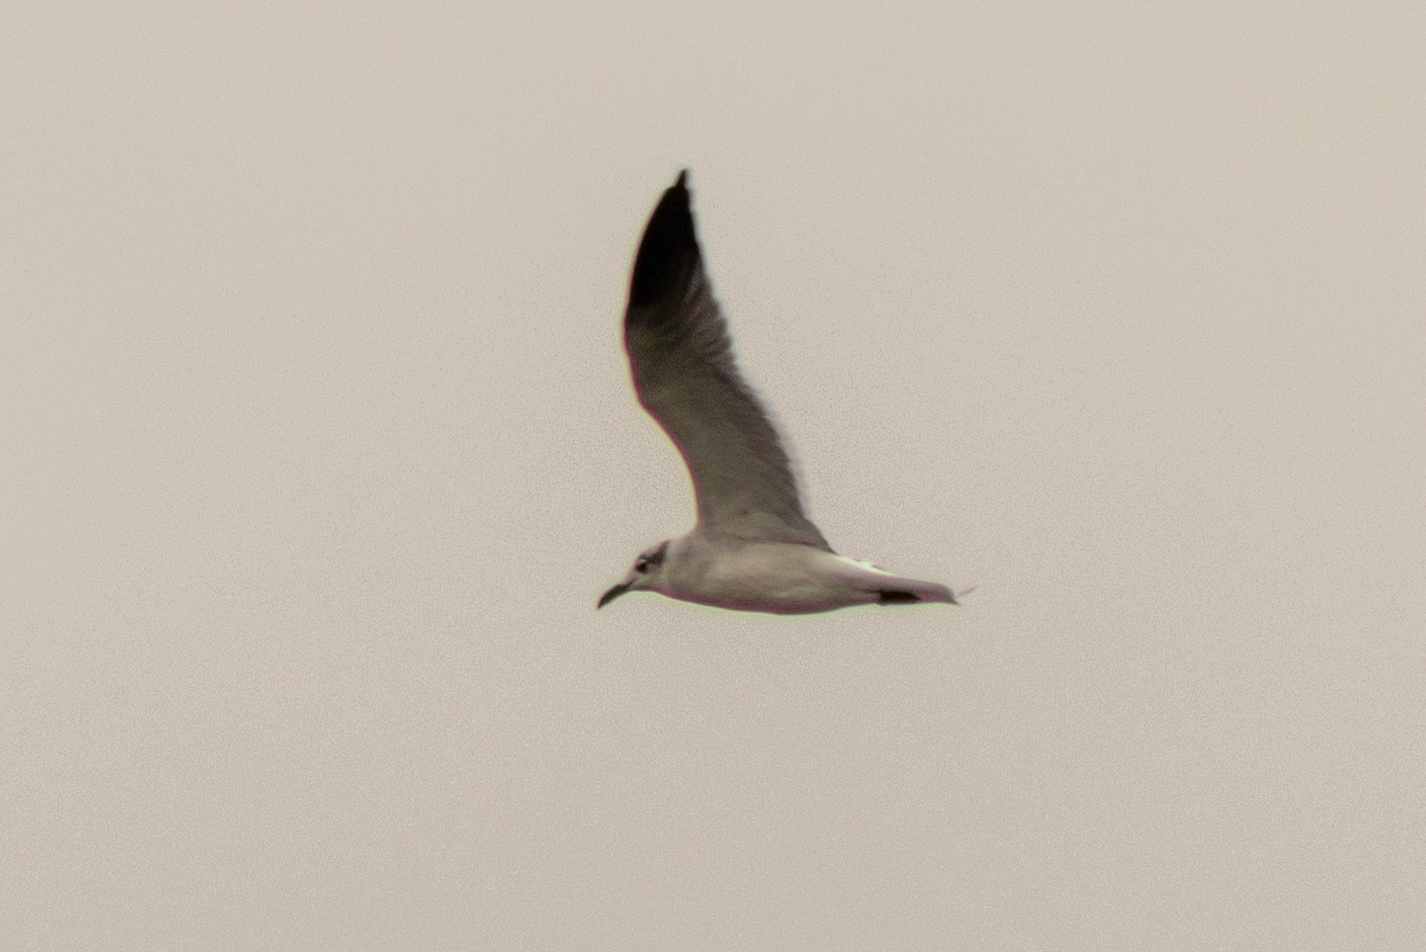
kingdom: Animalia
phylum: Chordata
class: Aves
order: Charadriiformes
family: Laridae
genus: Leucophaeus
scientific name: Leucophaeus atricilla
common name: Laughing gull
